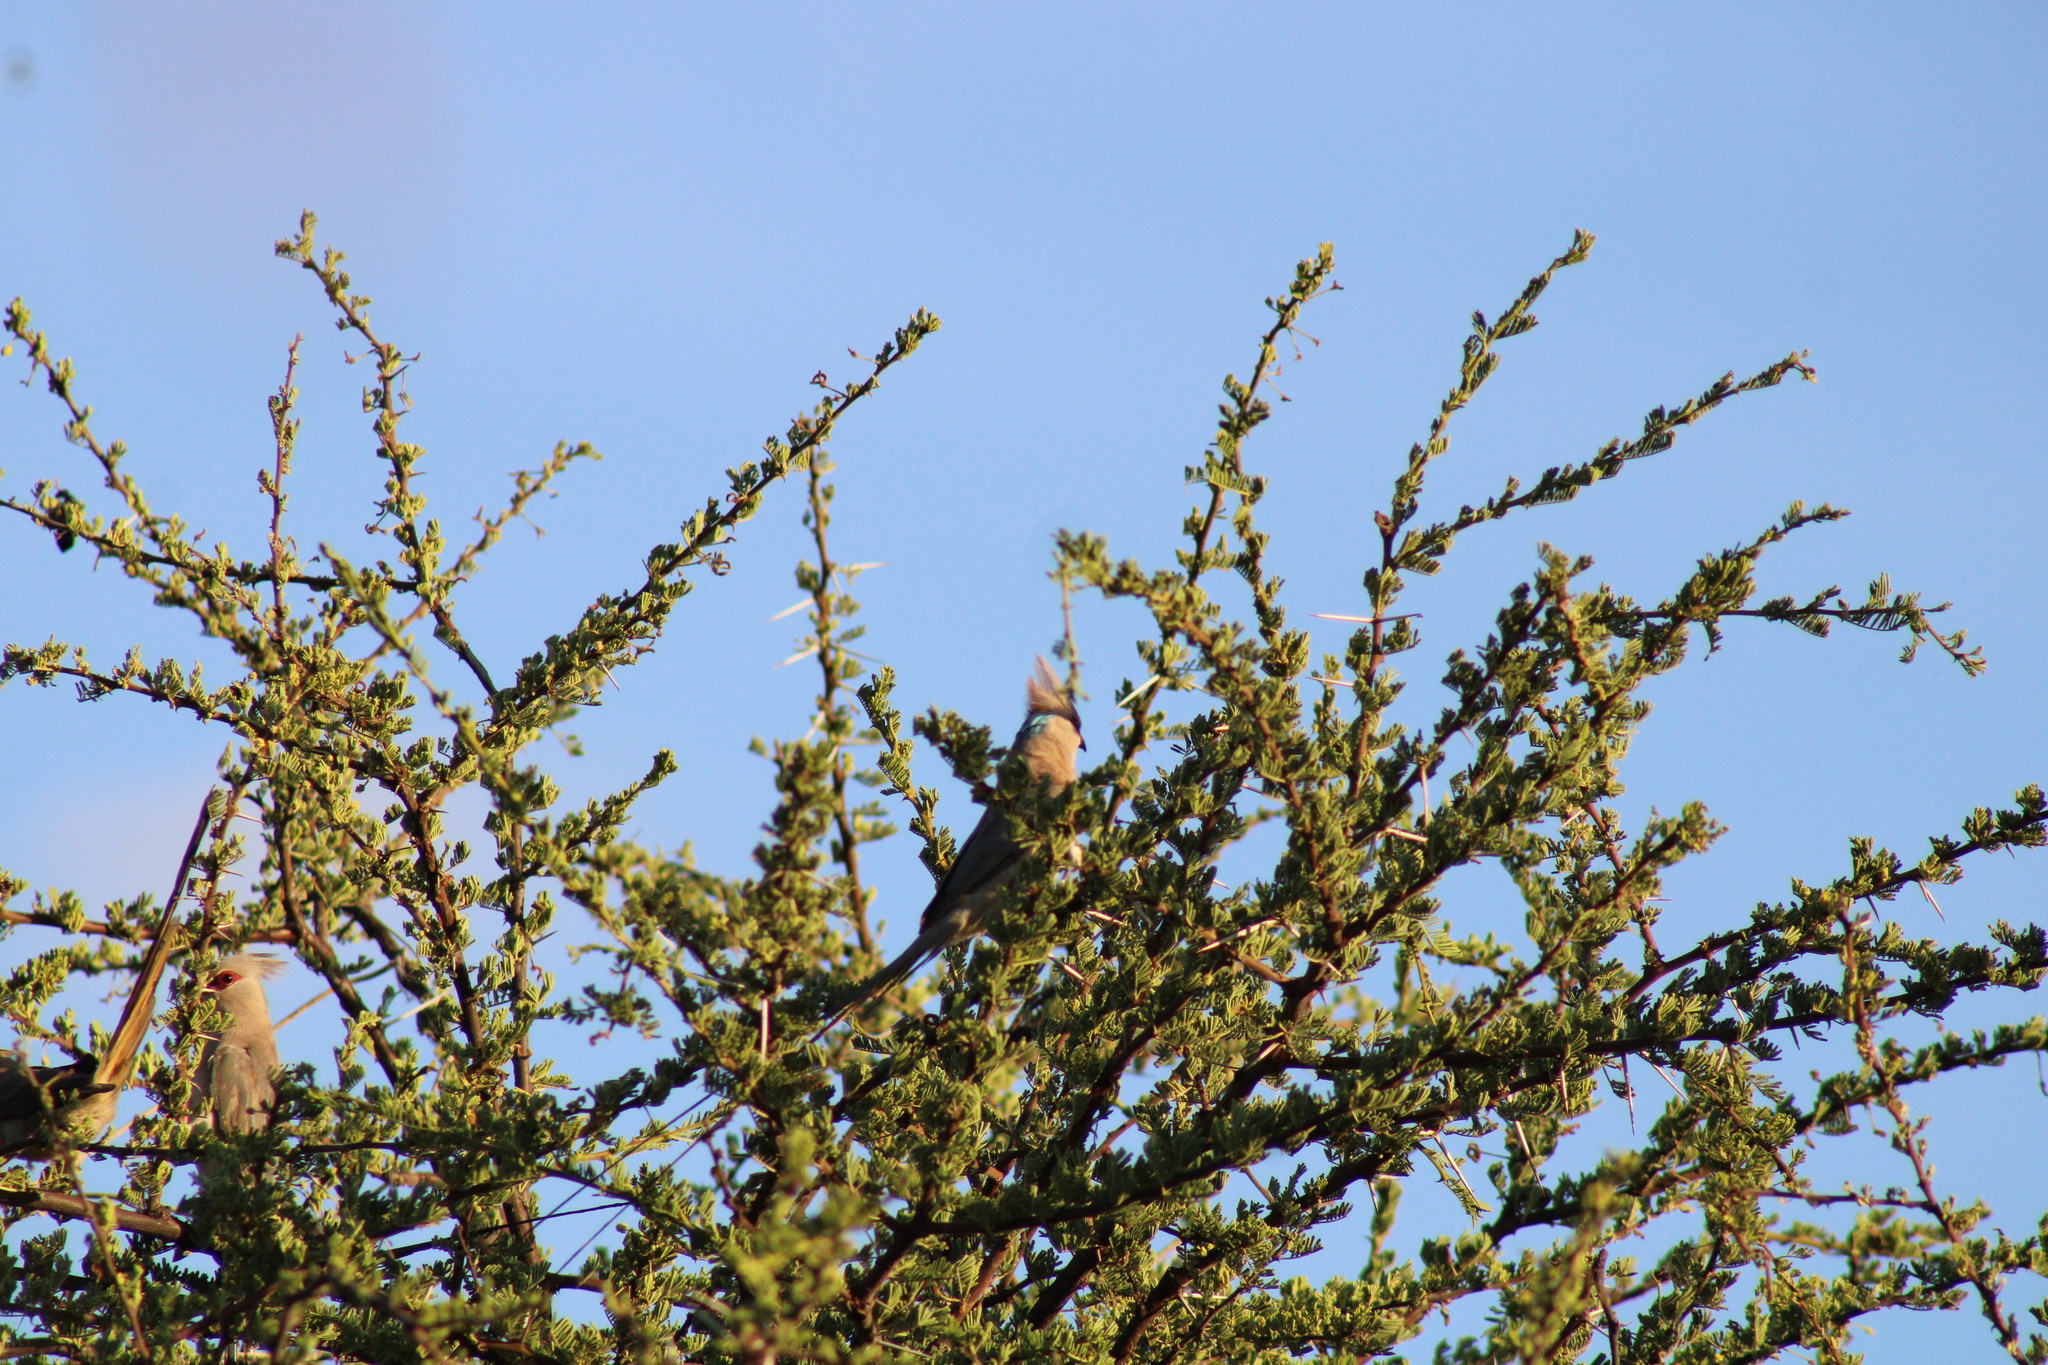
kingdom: Animalia
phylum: Chordata
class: Aves
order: Coliiformes
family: Coliidae
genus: Urocolius
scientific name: Urocolius macrourus
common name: Blue-naped mousebird
